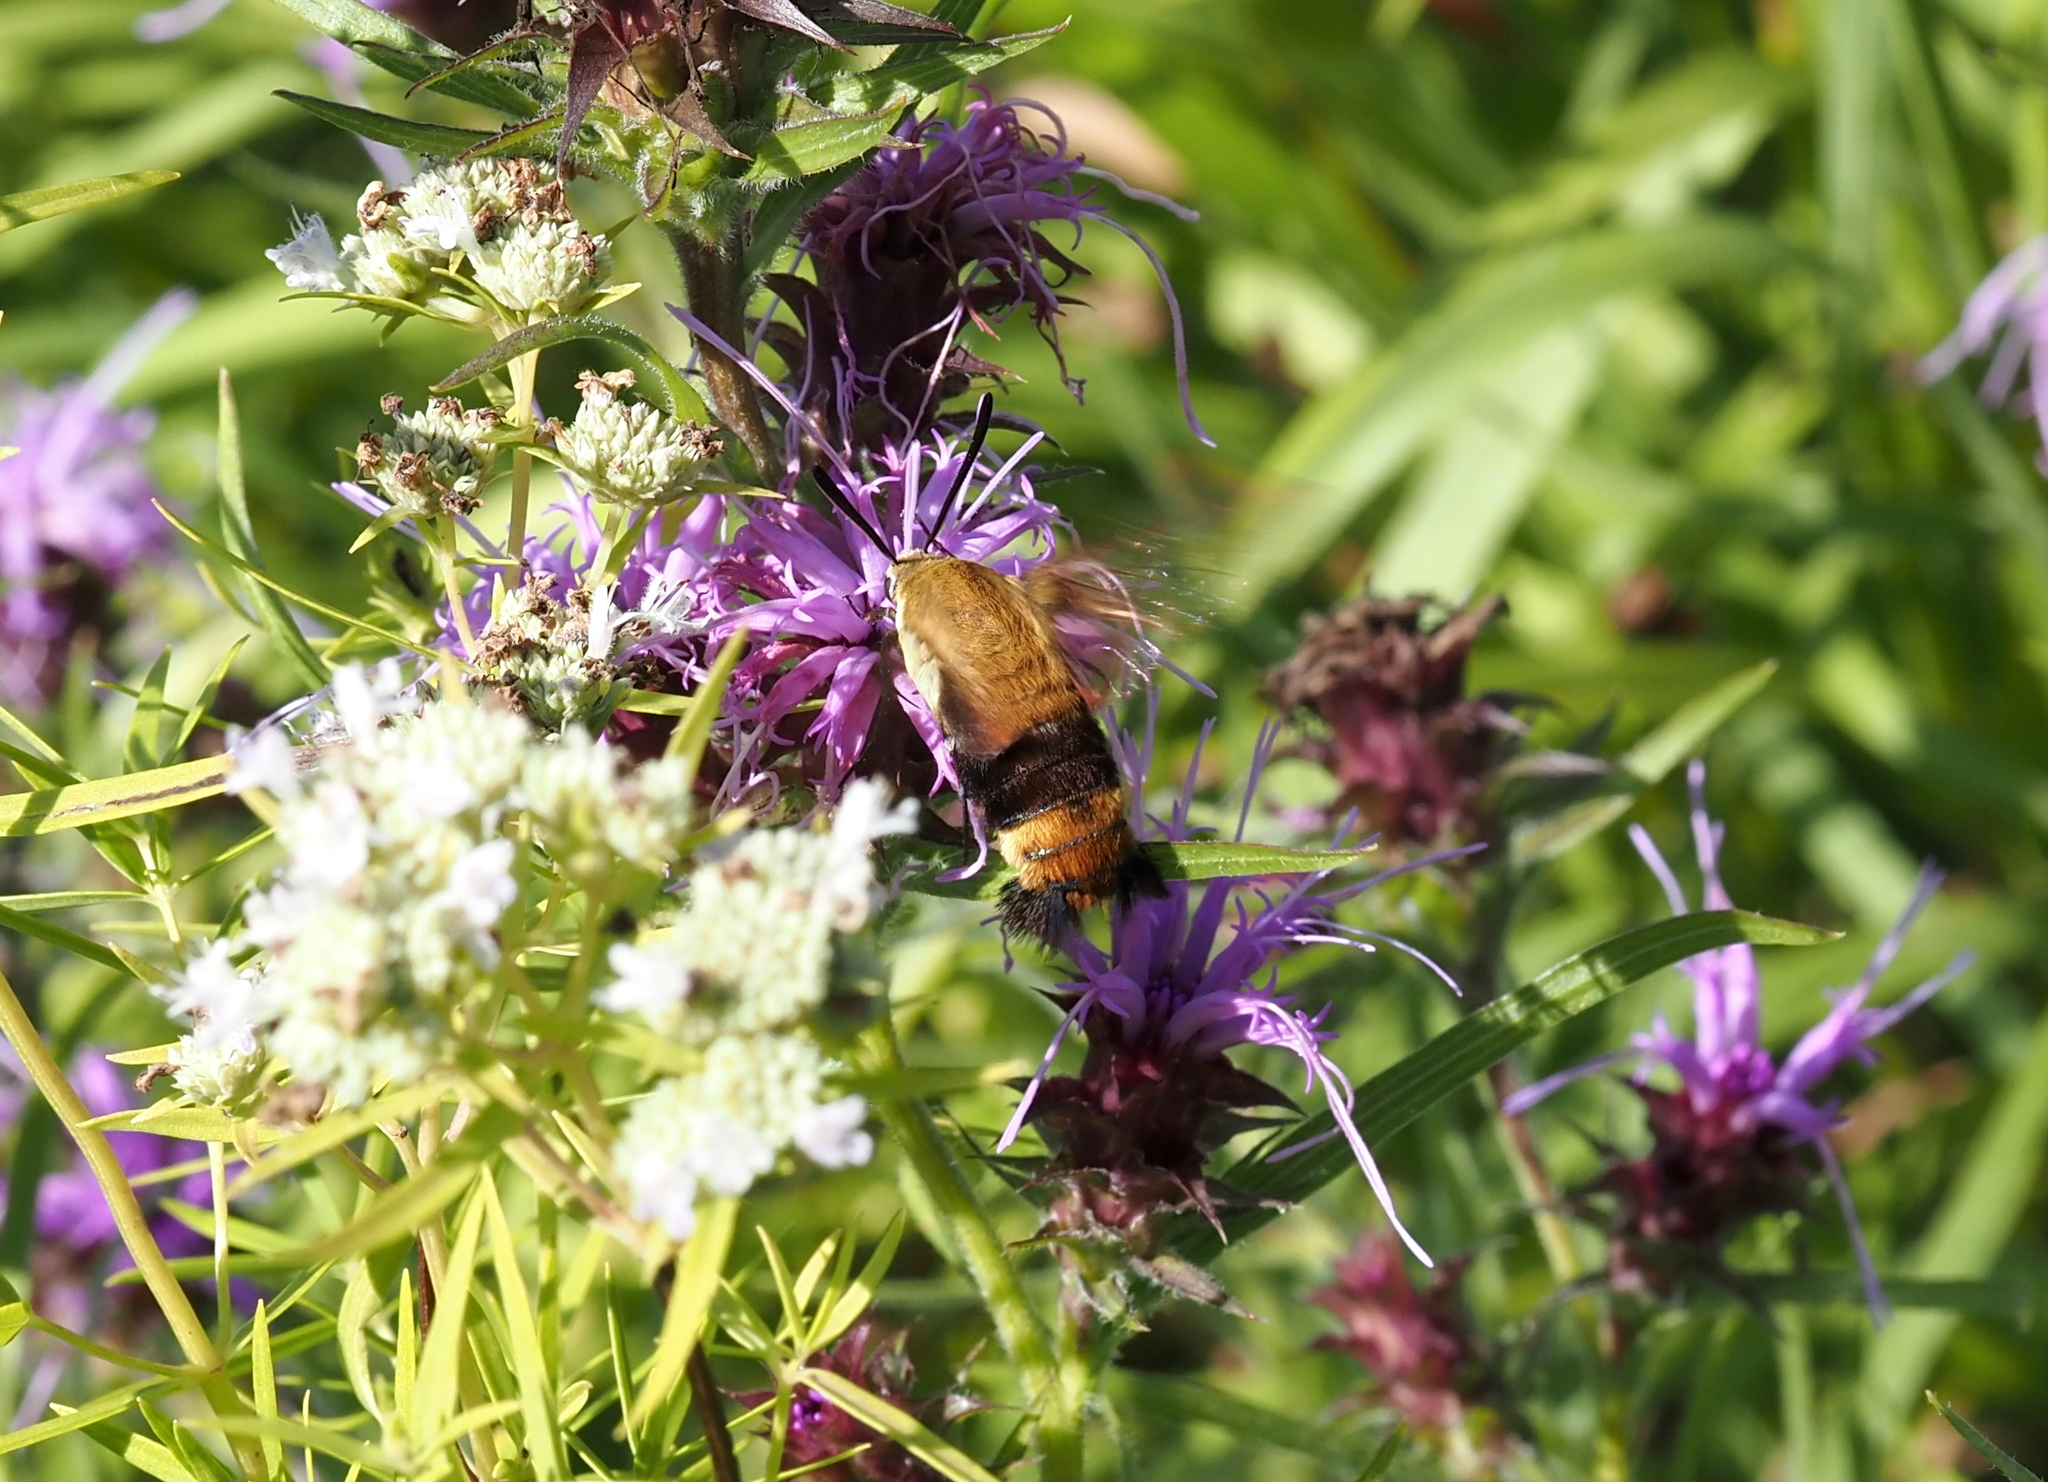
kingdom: Animalia
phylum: Arthropoda
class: Insecta
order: Lepidoptera
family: Sphingidae
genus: Hemaris
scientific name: Hemaris diffinis
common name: Bumblebee moth
